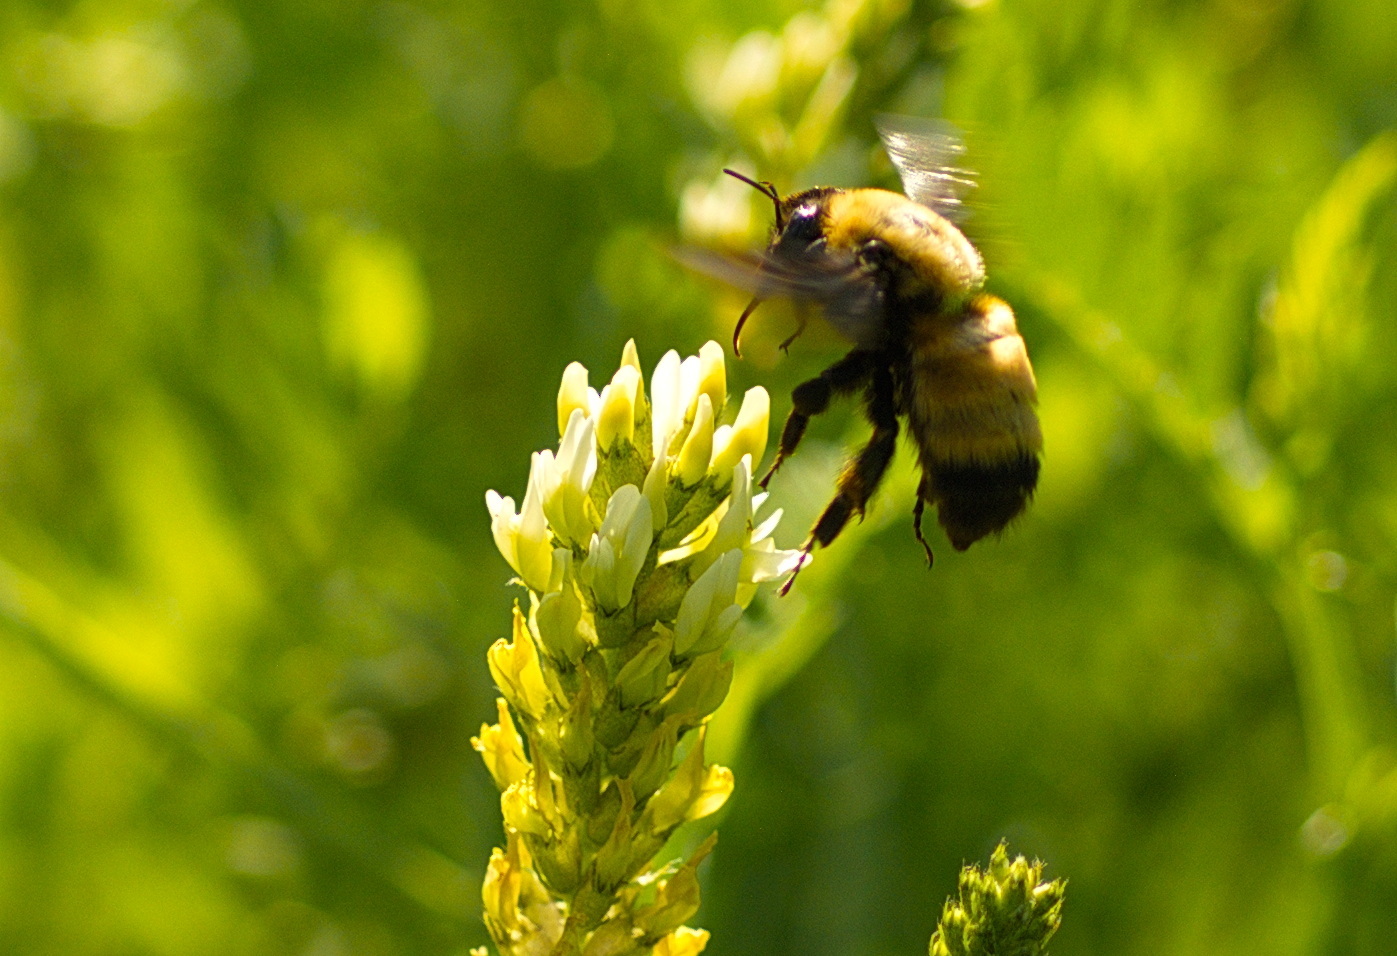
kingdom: Animalia
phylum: Arthropoda
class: Insecta
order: Hymenoptera
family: Apidae
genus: Bombus
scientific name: Bombus nevadensis
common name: Nevada bumble bee
